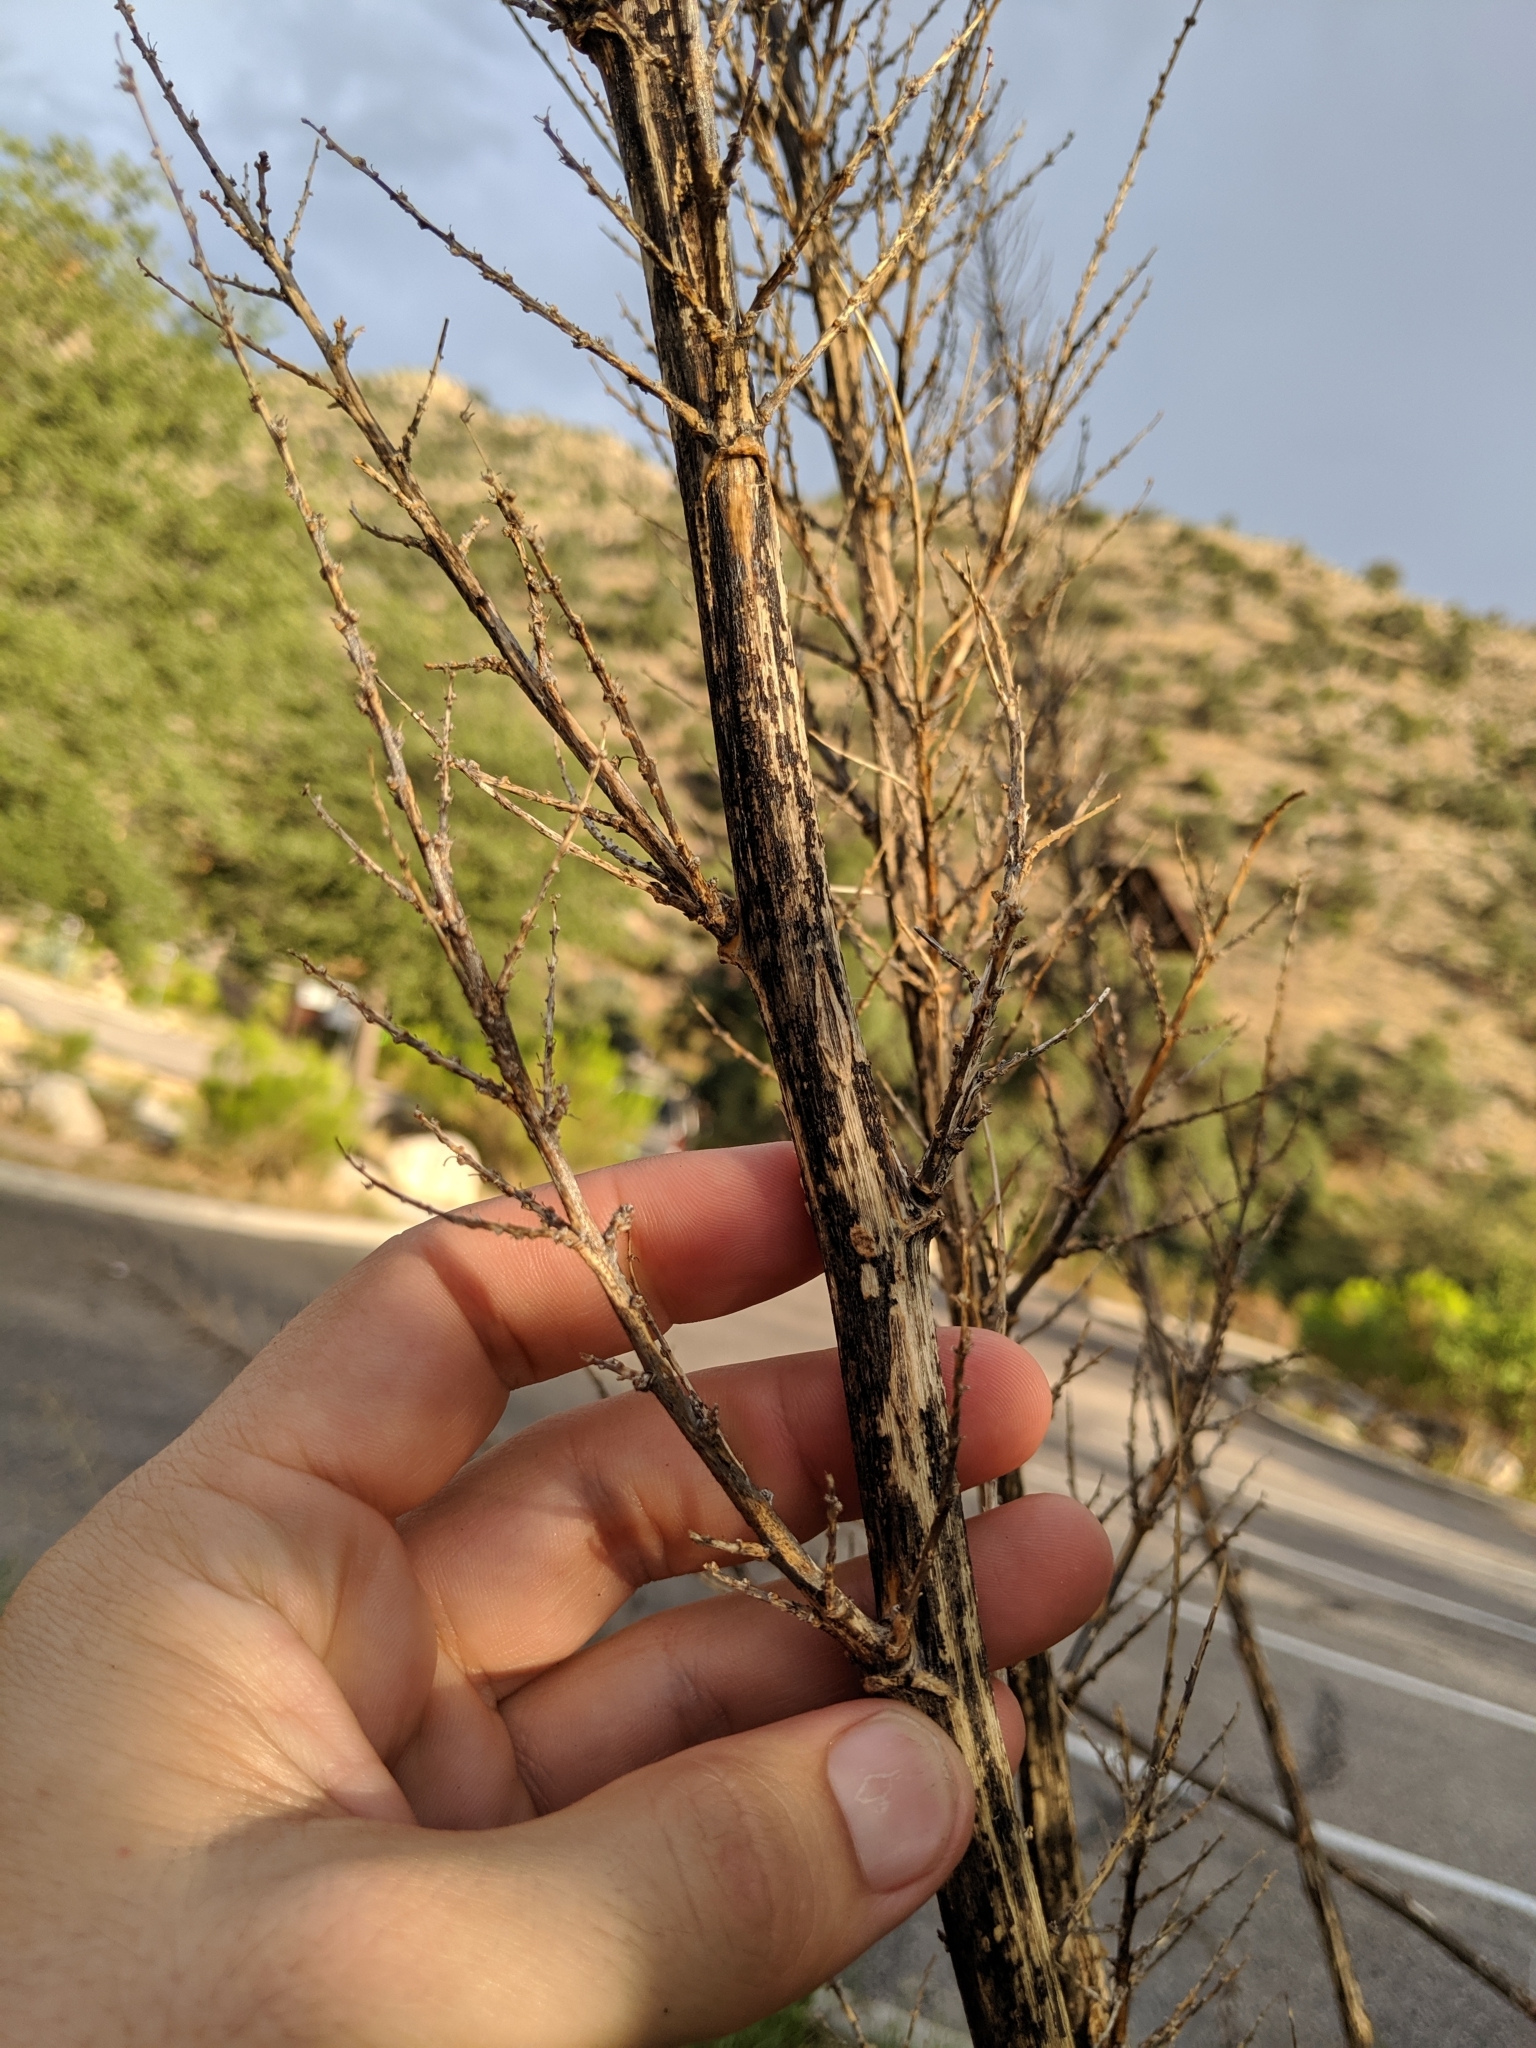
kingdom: Plantae
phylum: Tracheophyta
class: Liliopsida
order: Asparagales
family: Asparagaceae
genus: Nolina
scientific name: Nolina microcarpa
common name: Bear-grass
